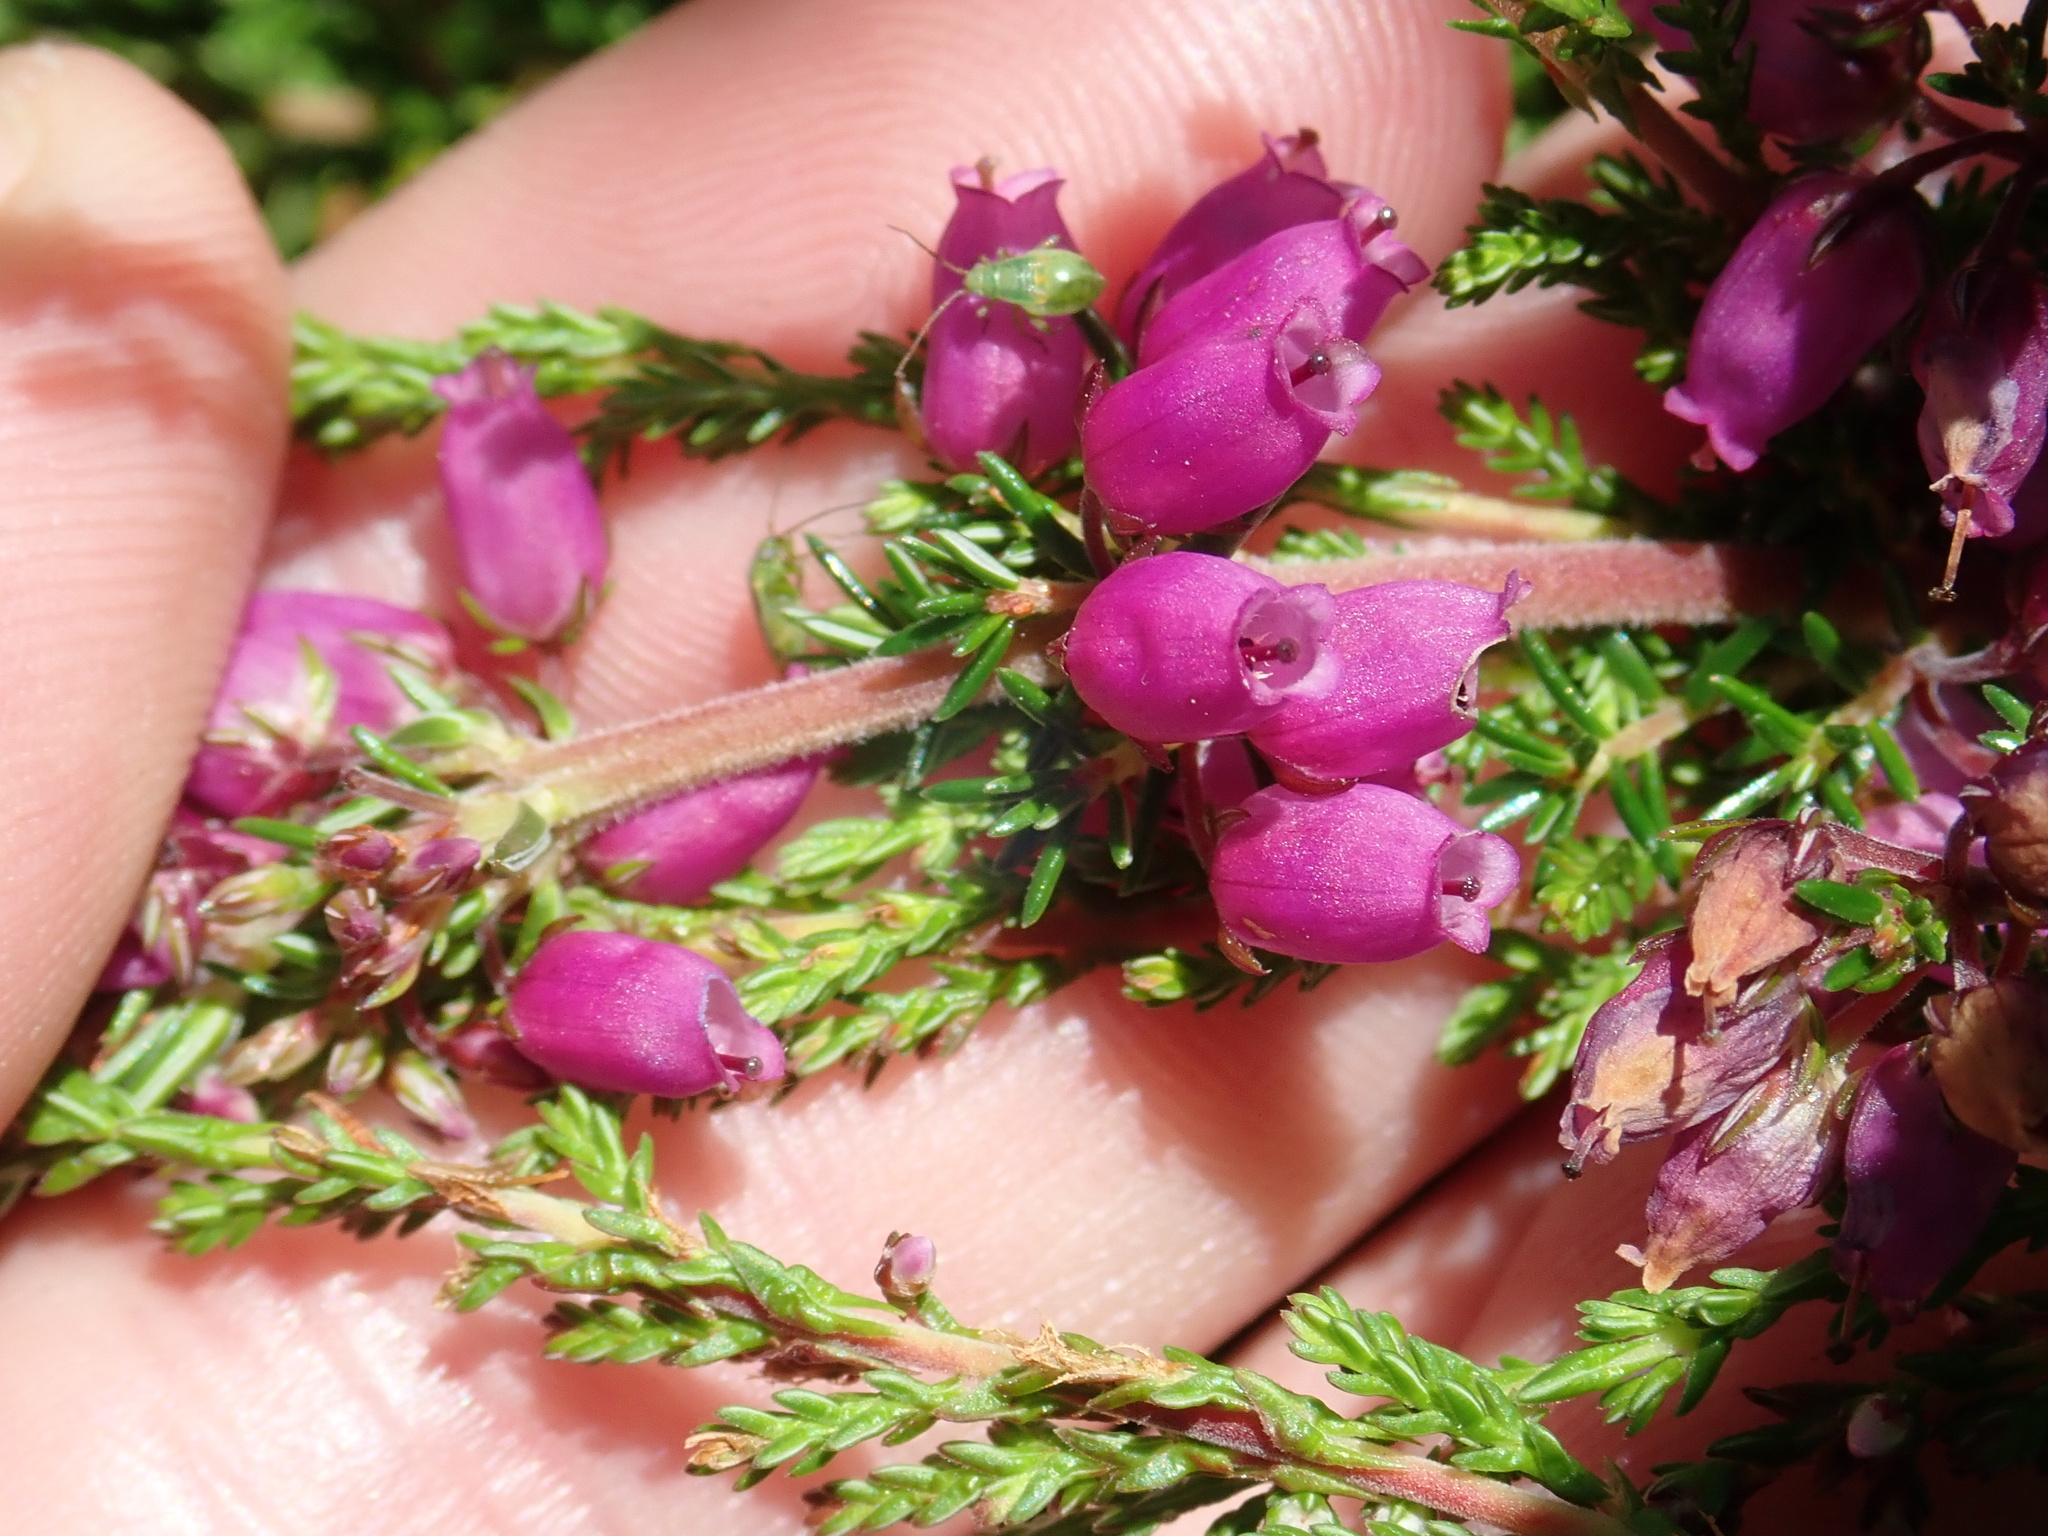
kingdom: Plantae
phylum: Tracheophyta
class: Magnoliopsida
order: Ericales
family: Ericaceae
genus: Erica
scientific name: Erica cinerea
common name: Bell heather
